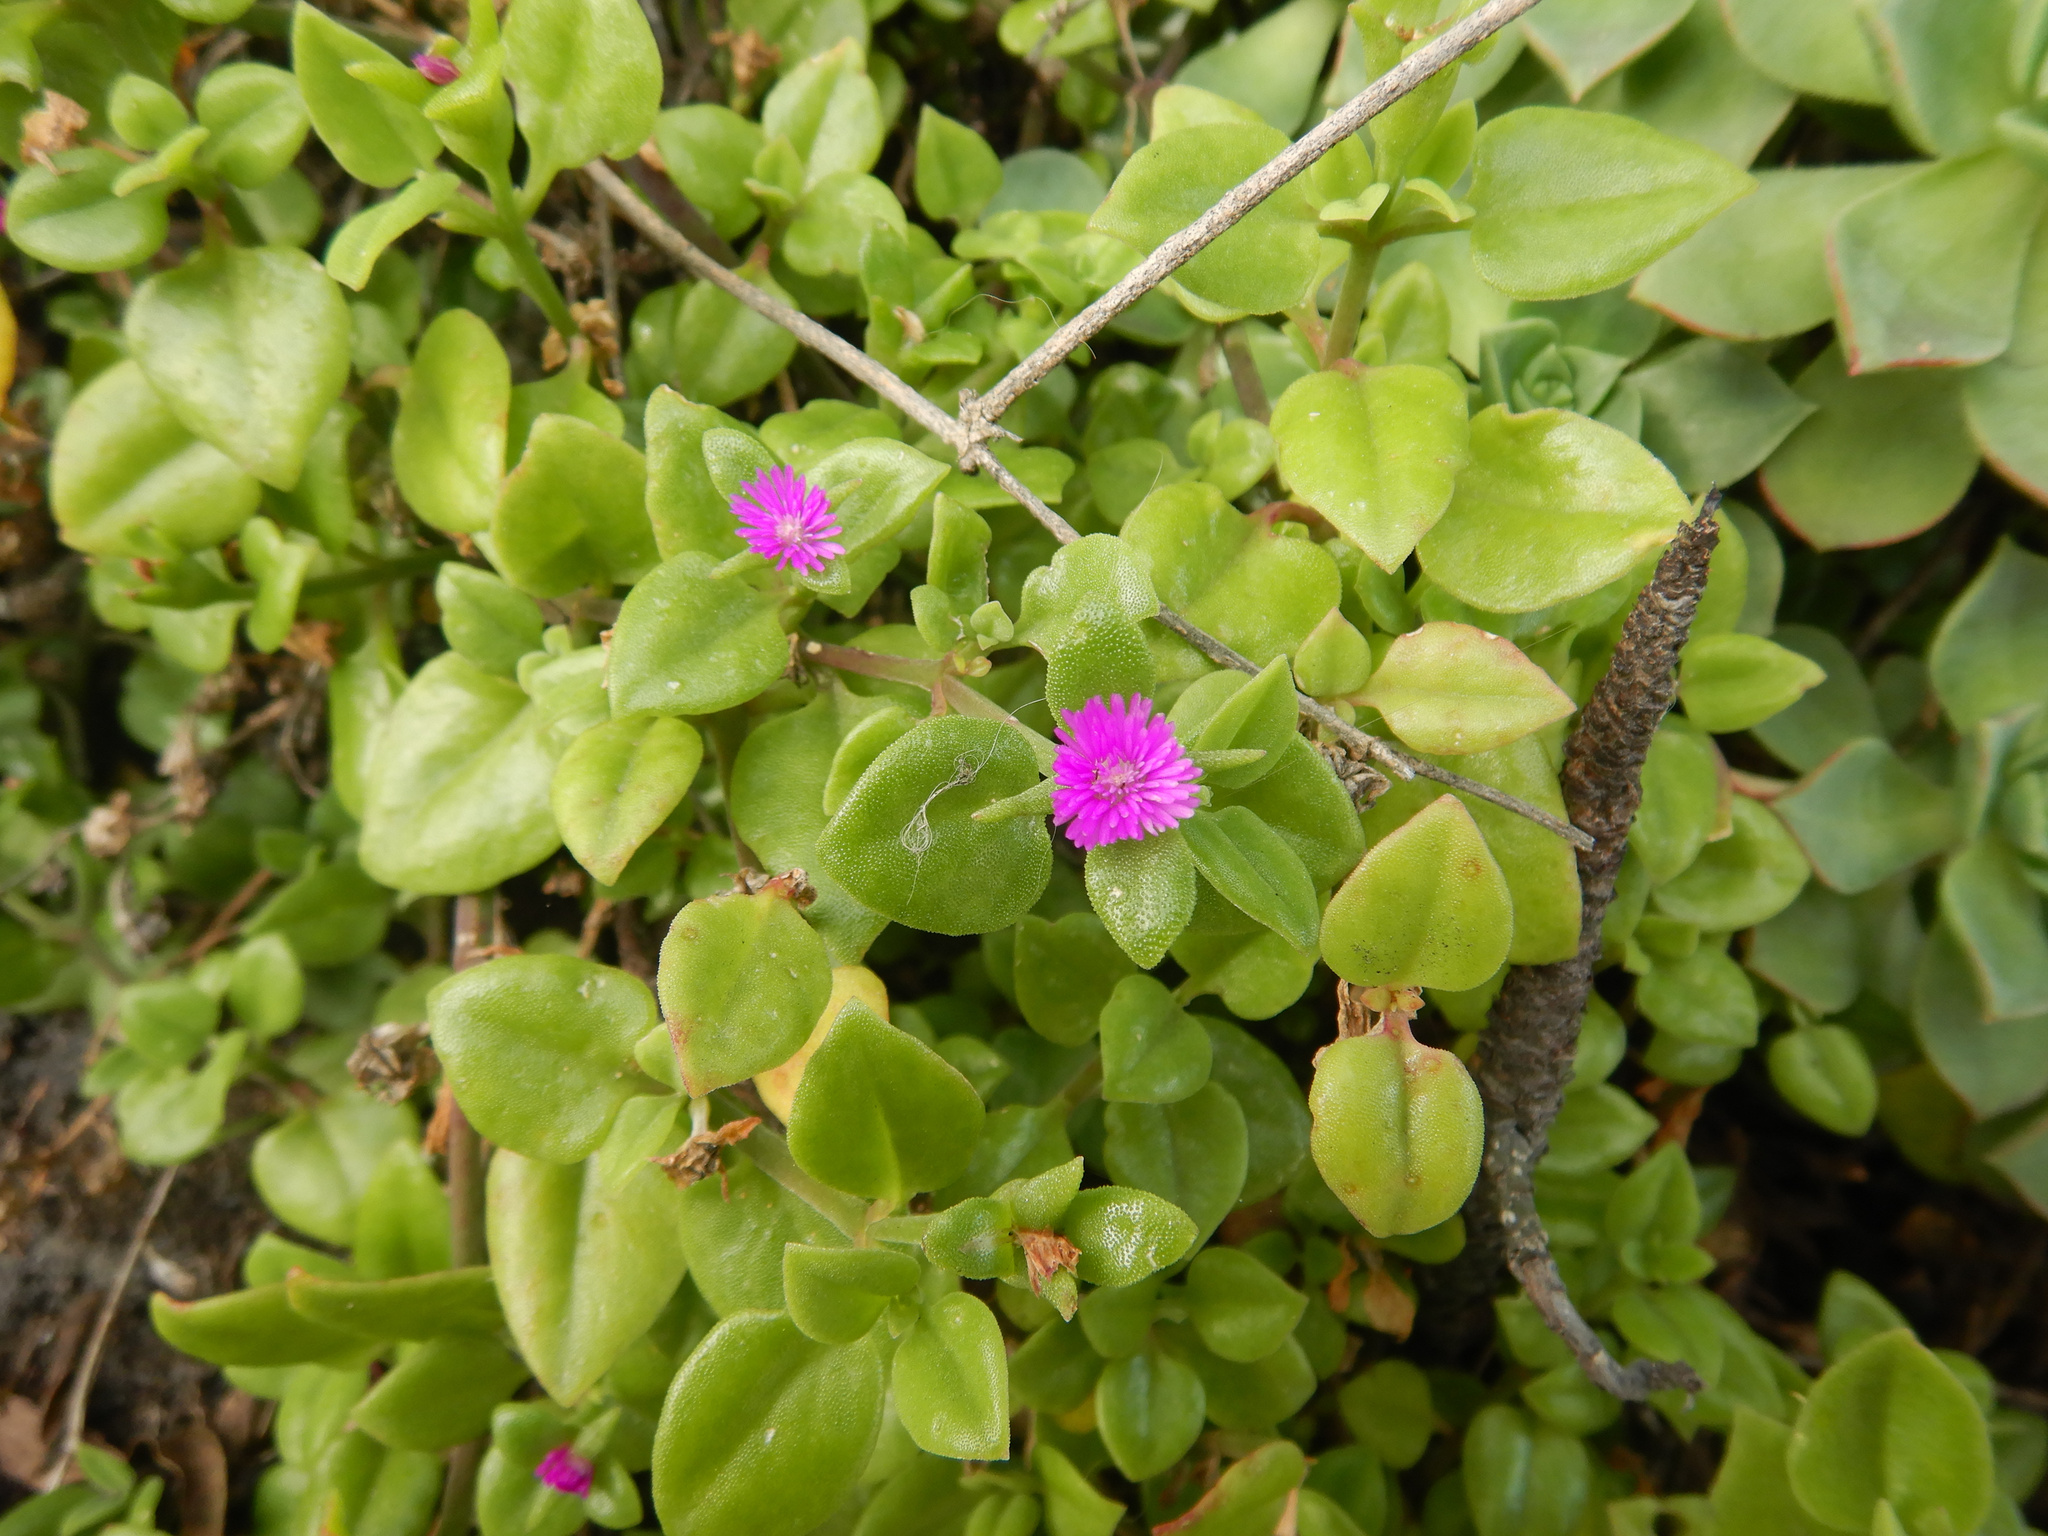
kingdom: Plantae
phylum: Tracheophyta
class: Magnoliopsida
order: Caryophyllales
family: Aizoaceae
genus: Mesembryanthemum
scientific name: Mesembryanthemum cordifolium
